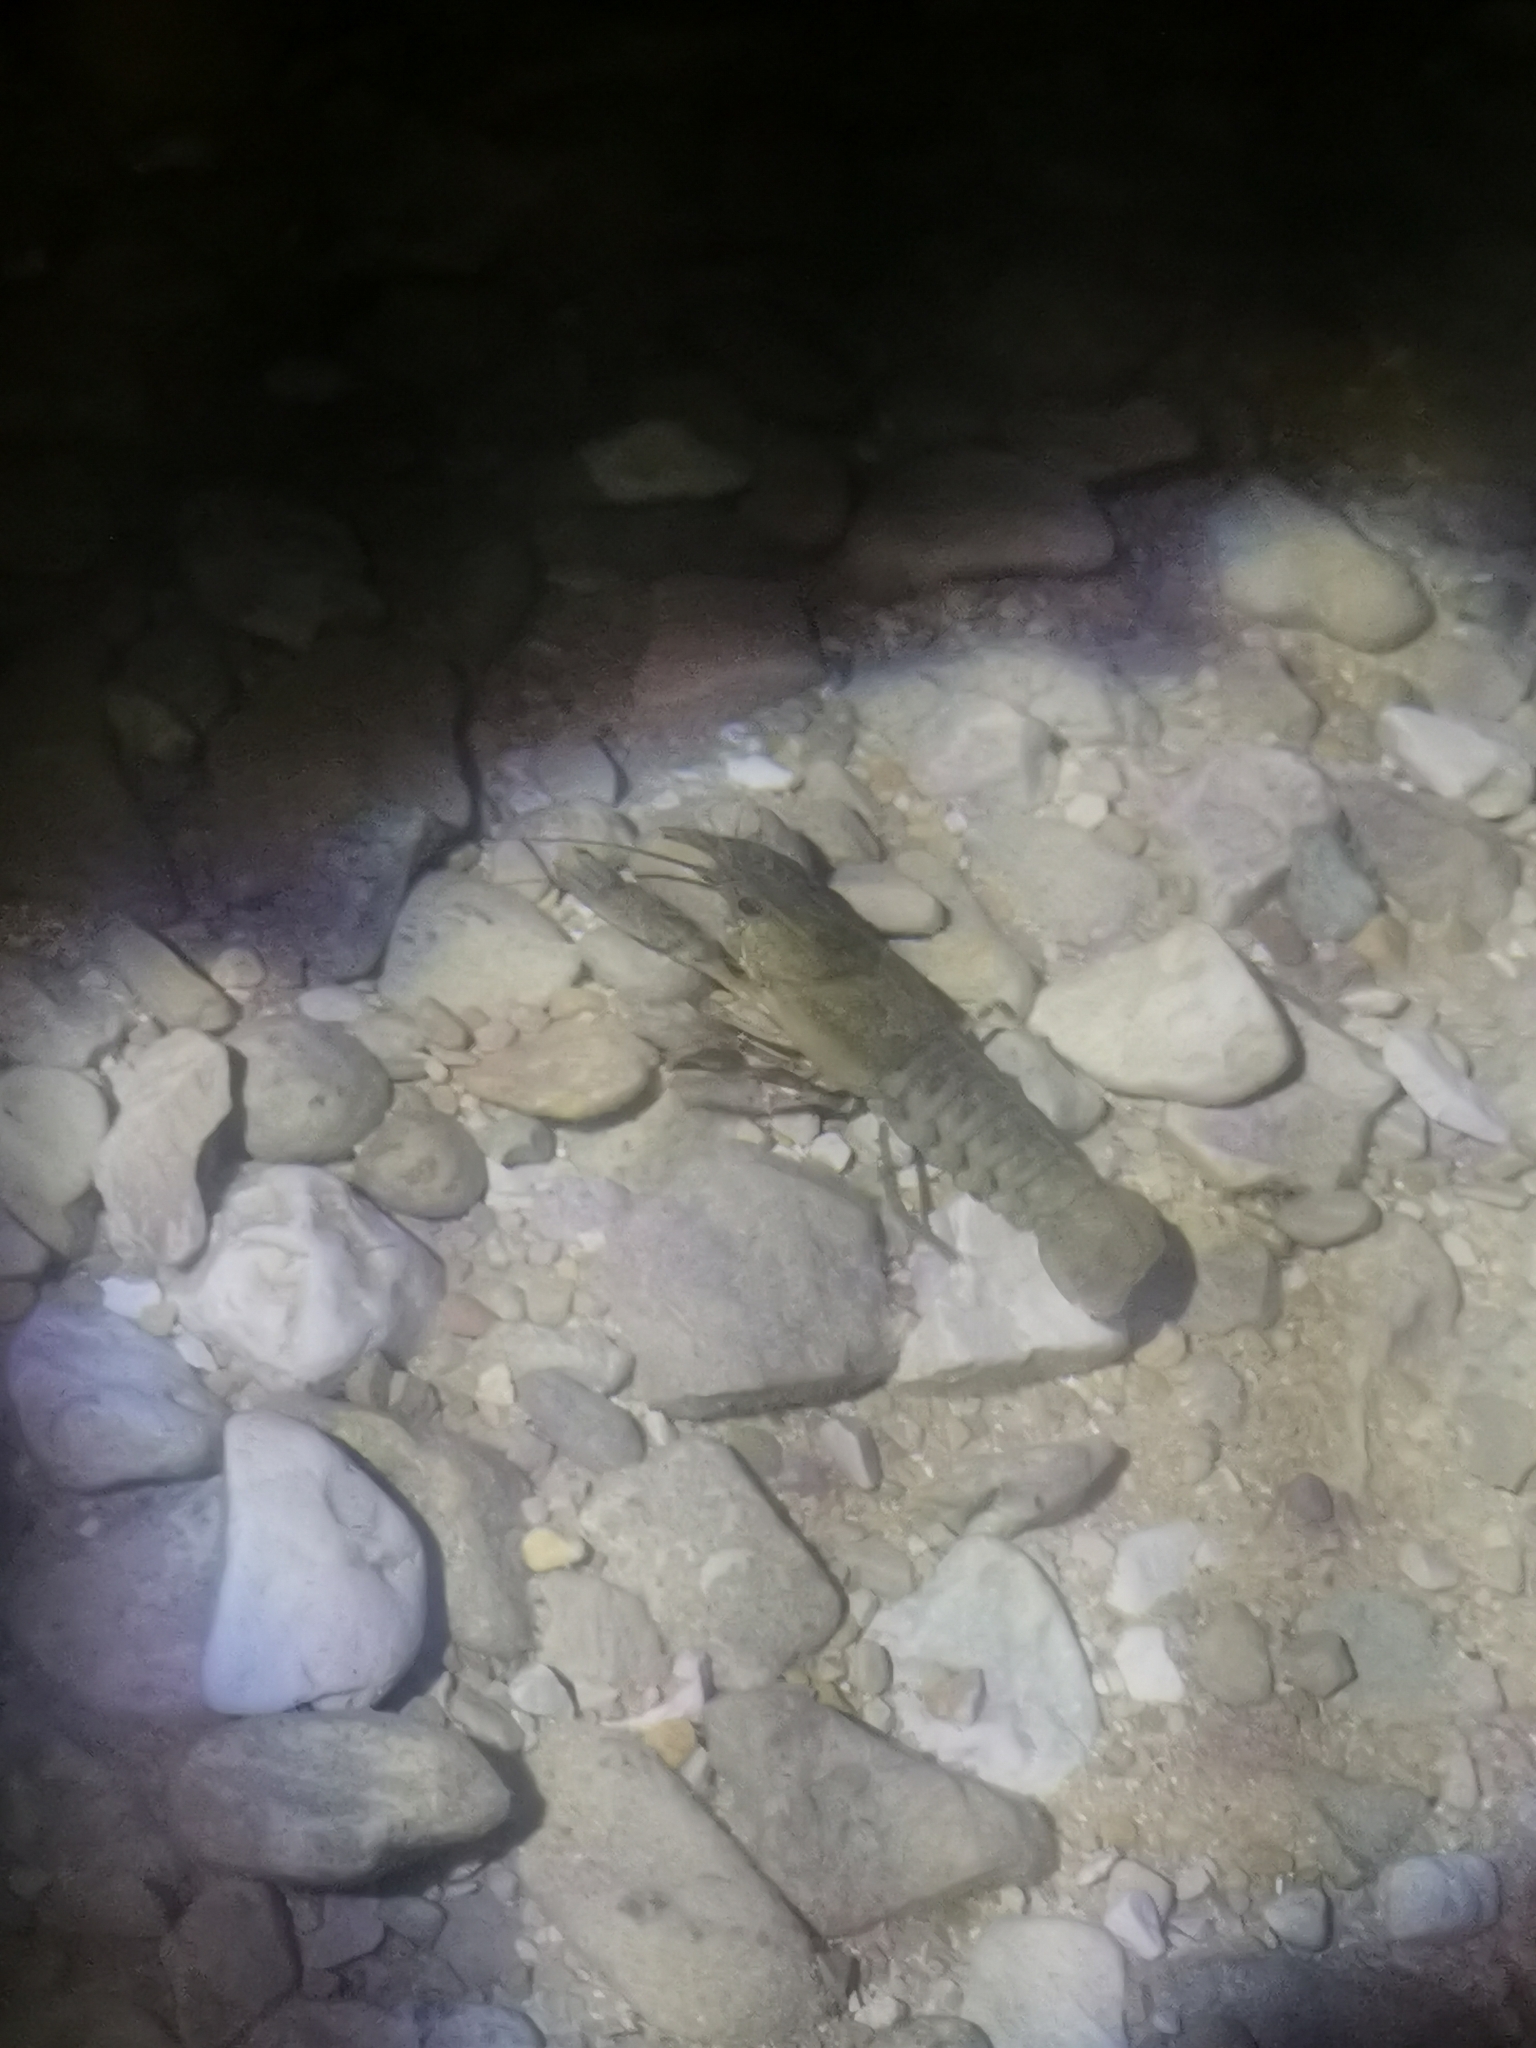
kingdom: Animalia
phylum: Arthropoda
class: Malacostraca
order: Decapoda
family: Cambaridae
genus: Faxonius
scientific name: Faxonius limosus
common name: American crayfish
